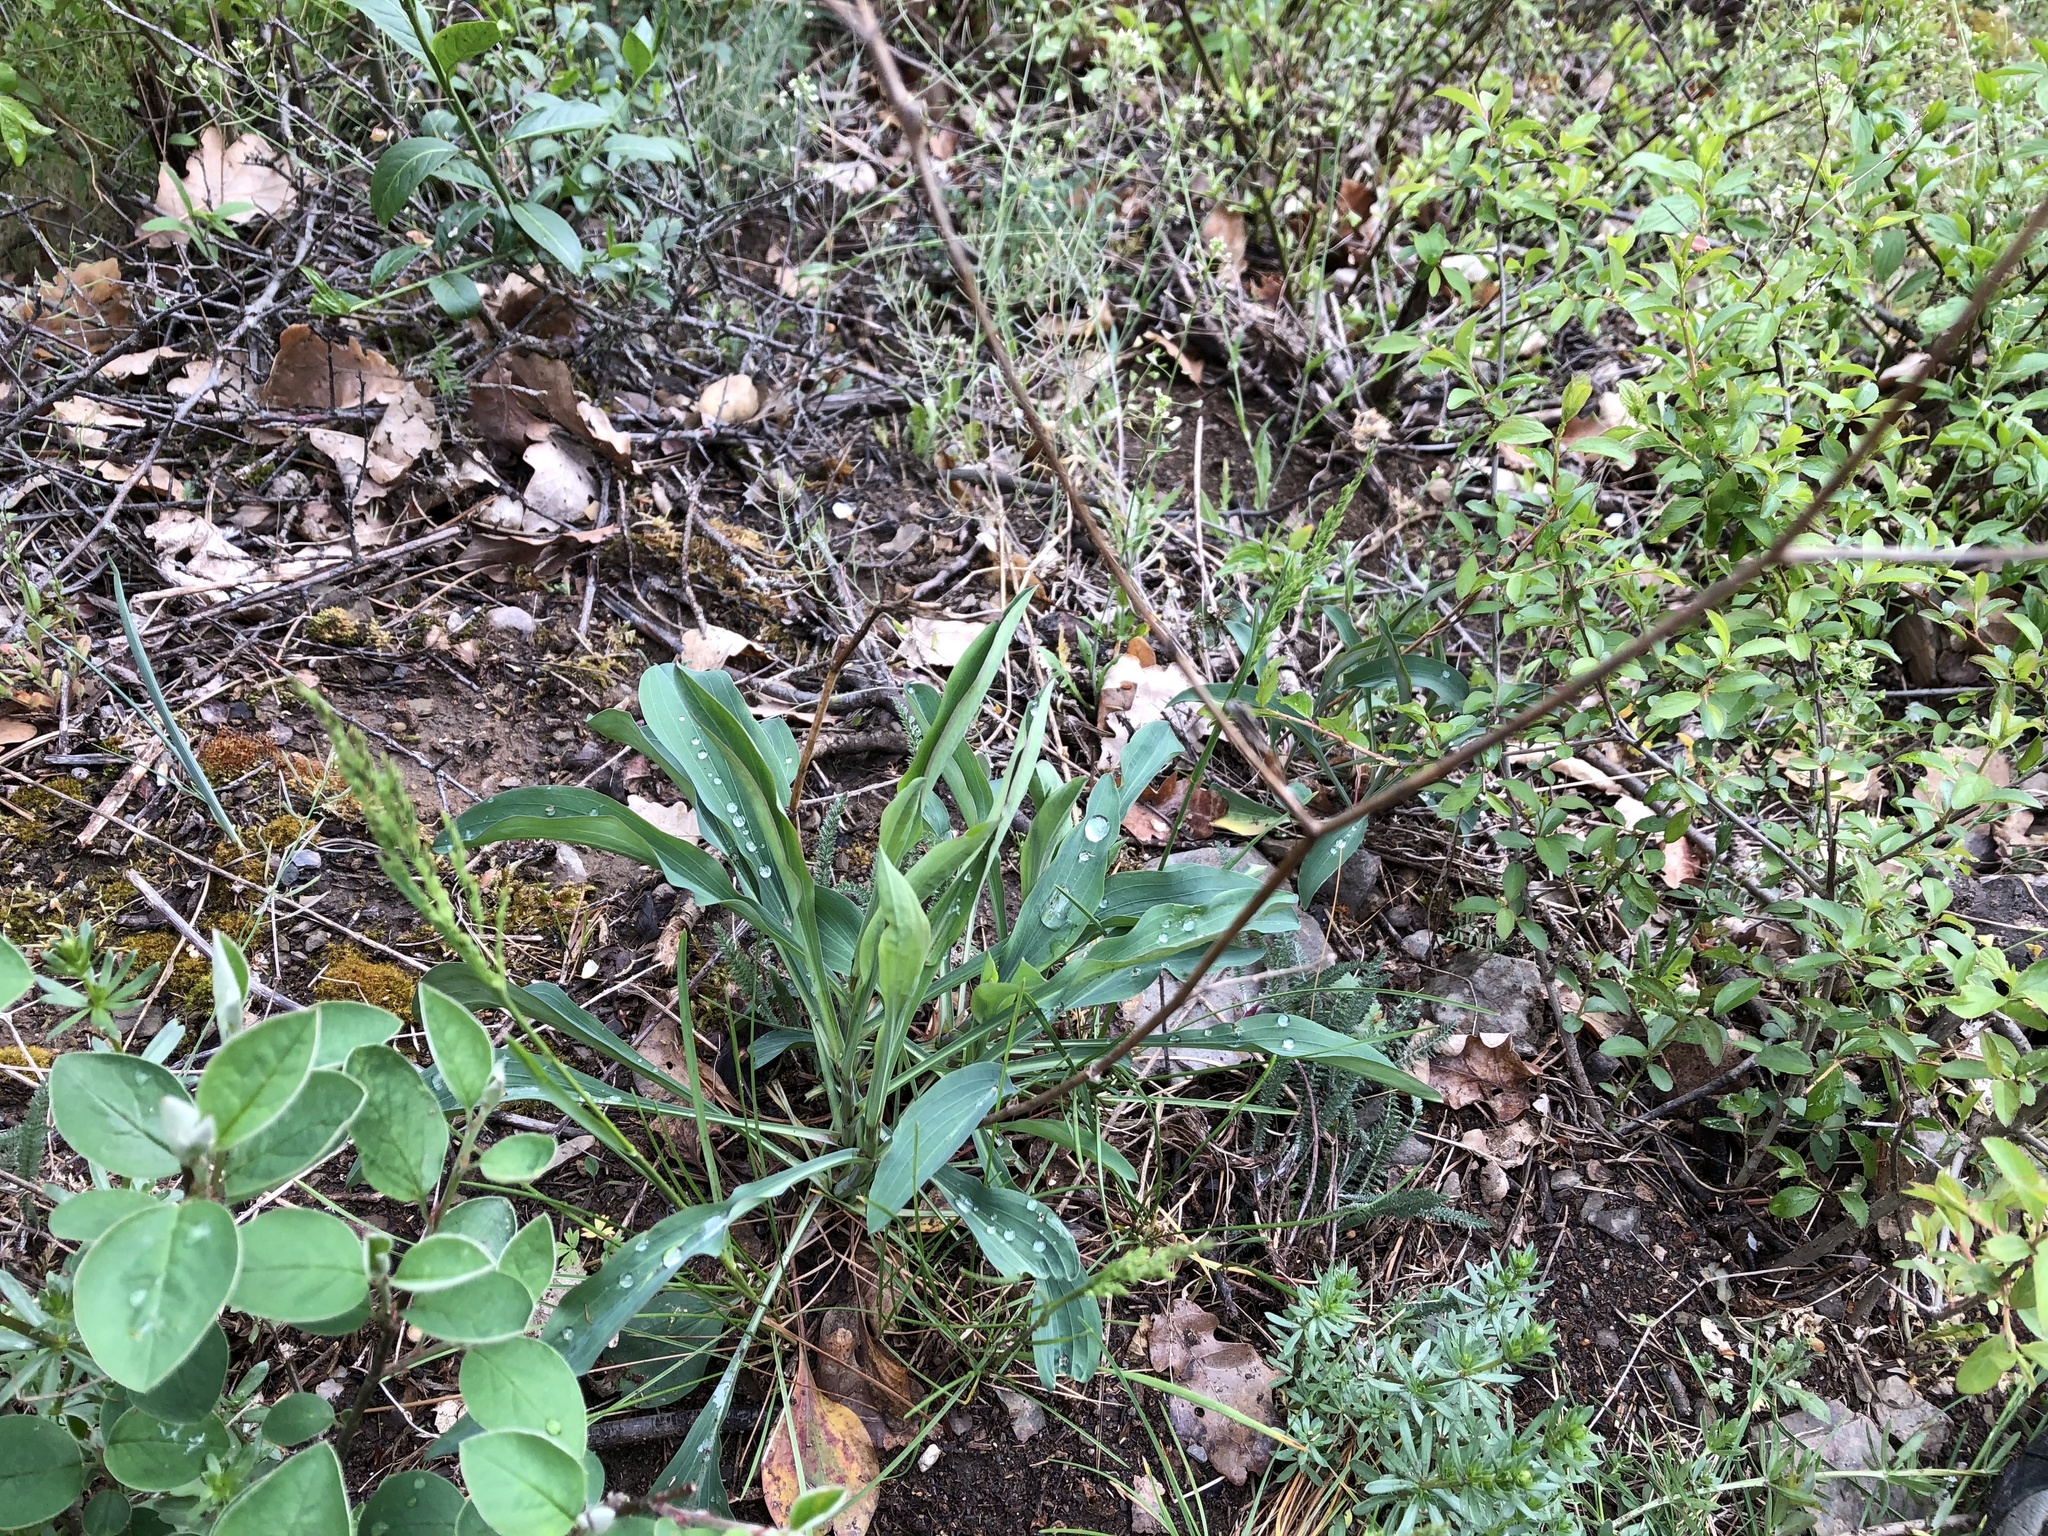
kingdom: Plantae
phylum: Tracheophyta
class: Magnoliopsida
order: Apiales
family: Apiaceae
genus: Bupleurum
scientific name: Bupleurum falcatum
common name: Sickle-leaved hare's-ear
